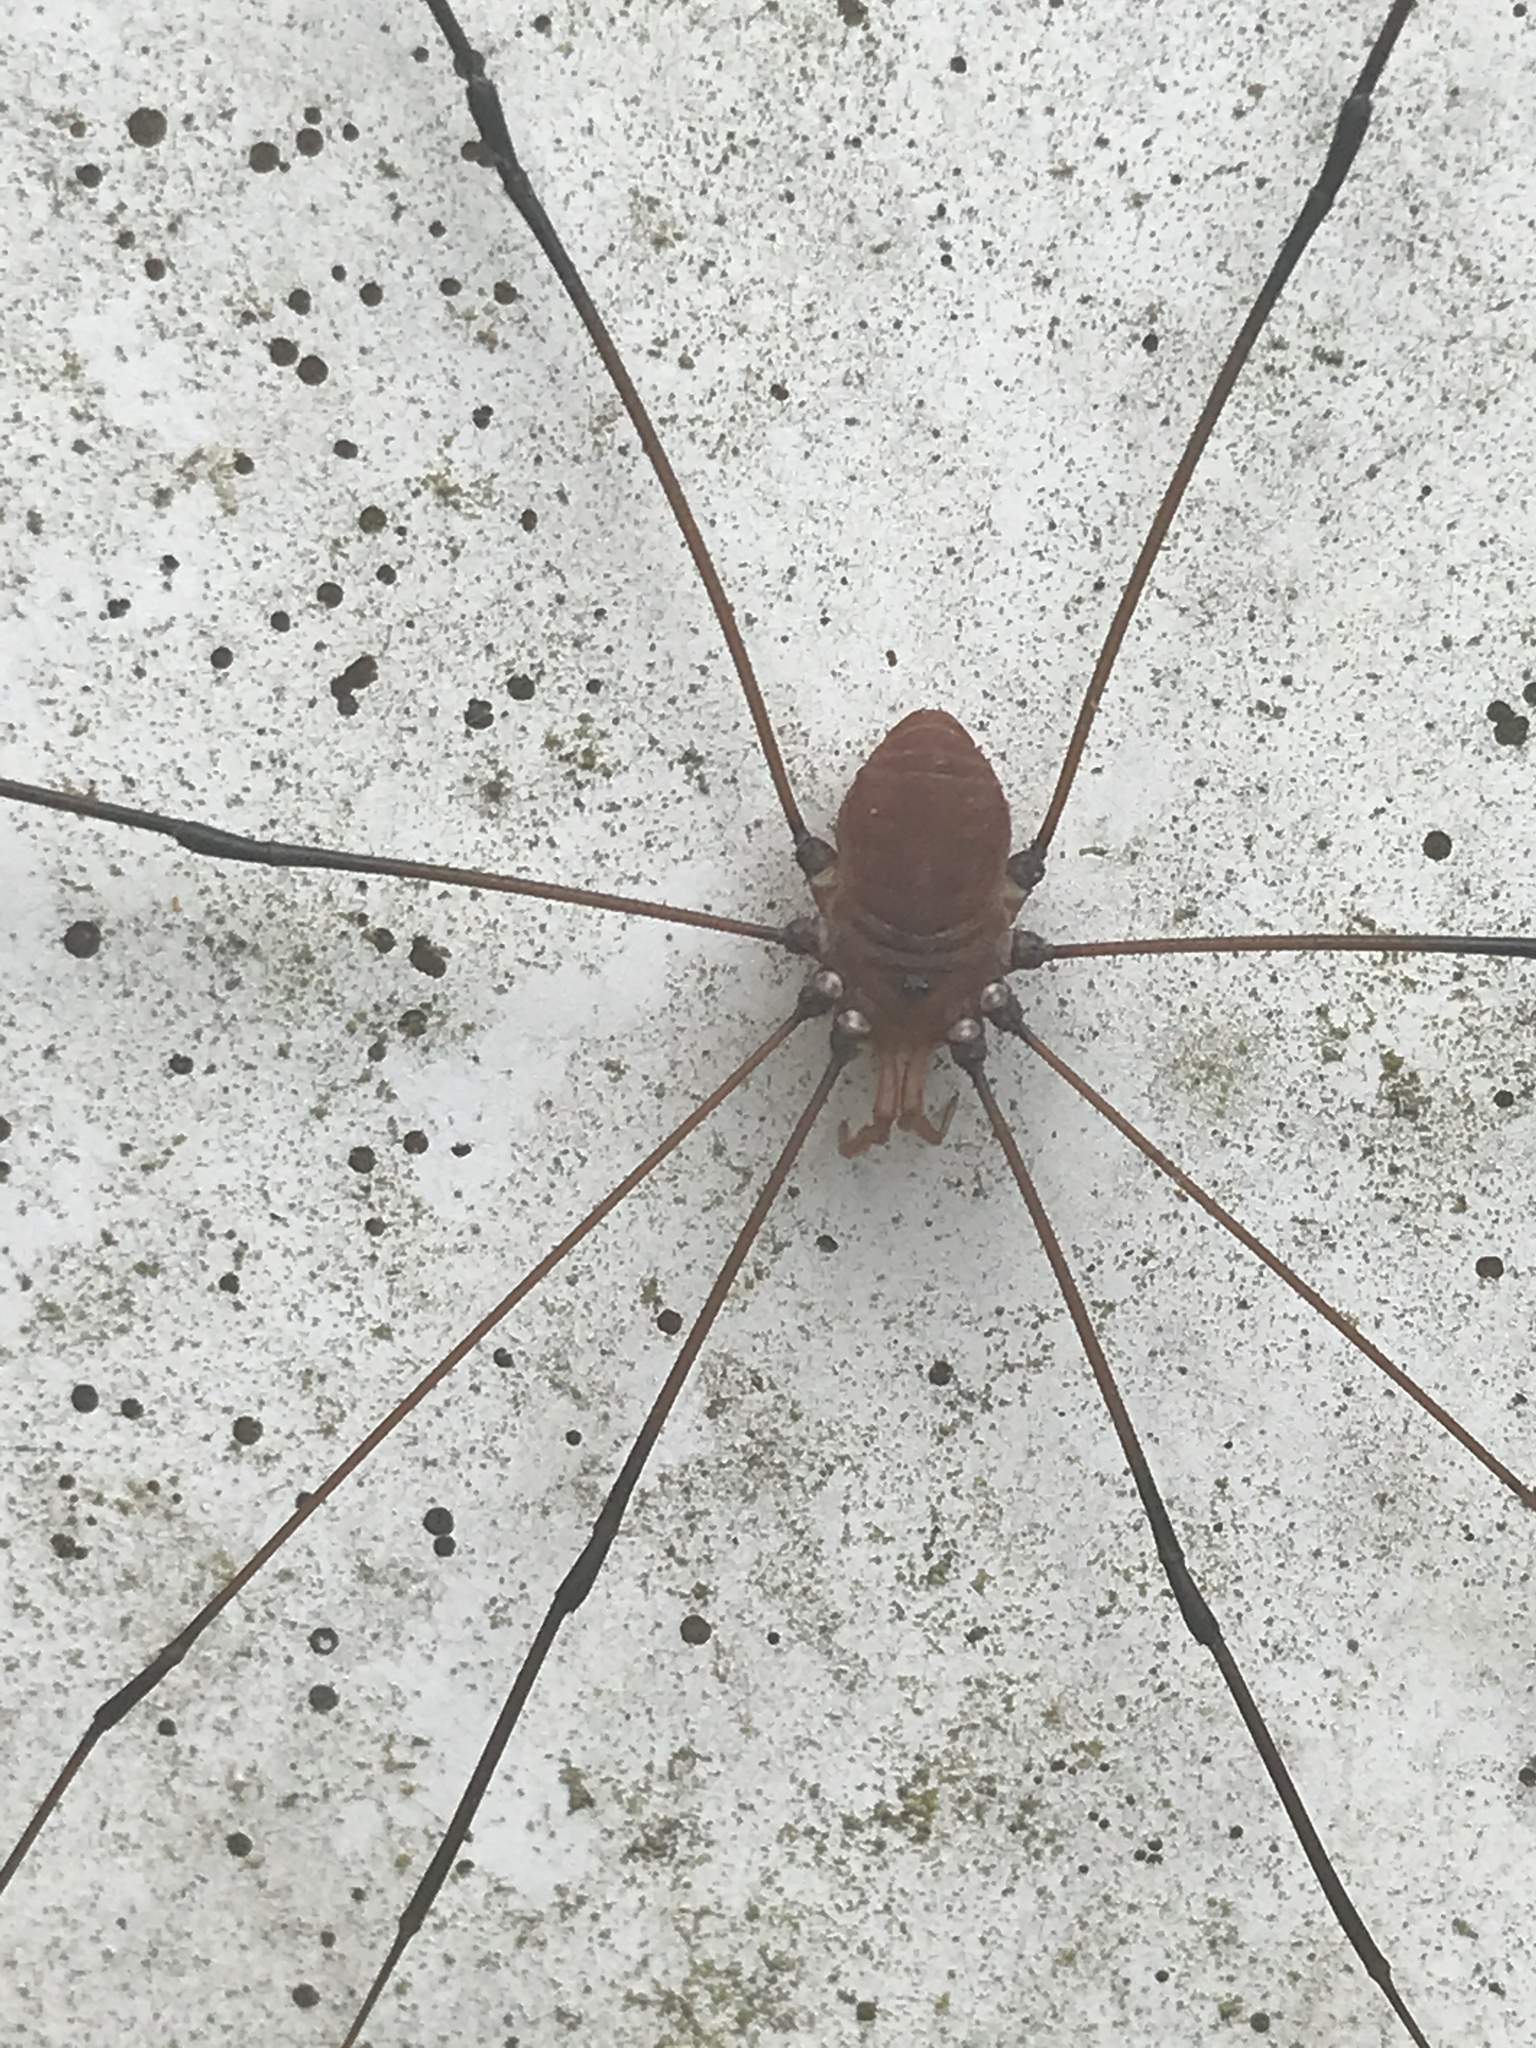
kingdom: Animalia
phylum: Arthropoda
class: Arachnida
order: Opiliones
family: Sclerosomatidae
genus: Leiobunum
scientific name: Leiobunum vittatum
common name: Eastern harvestman
